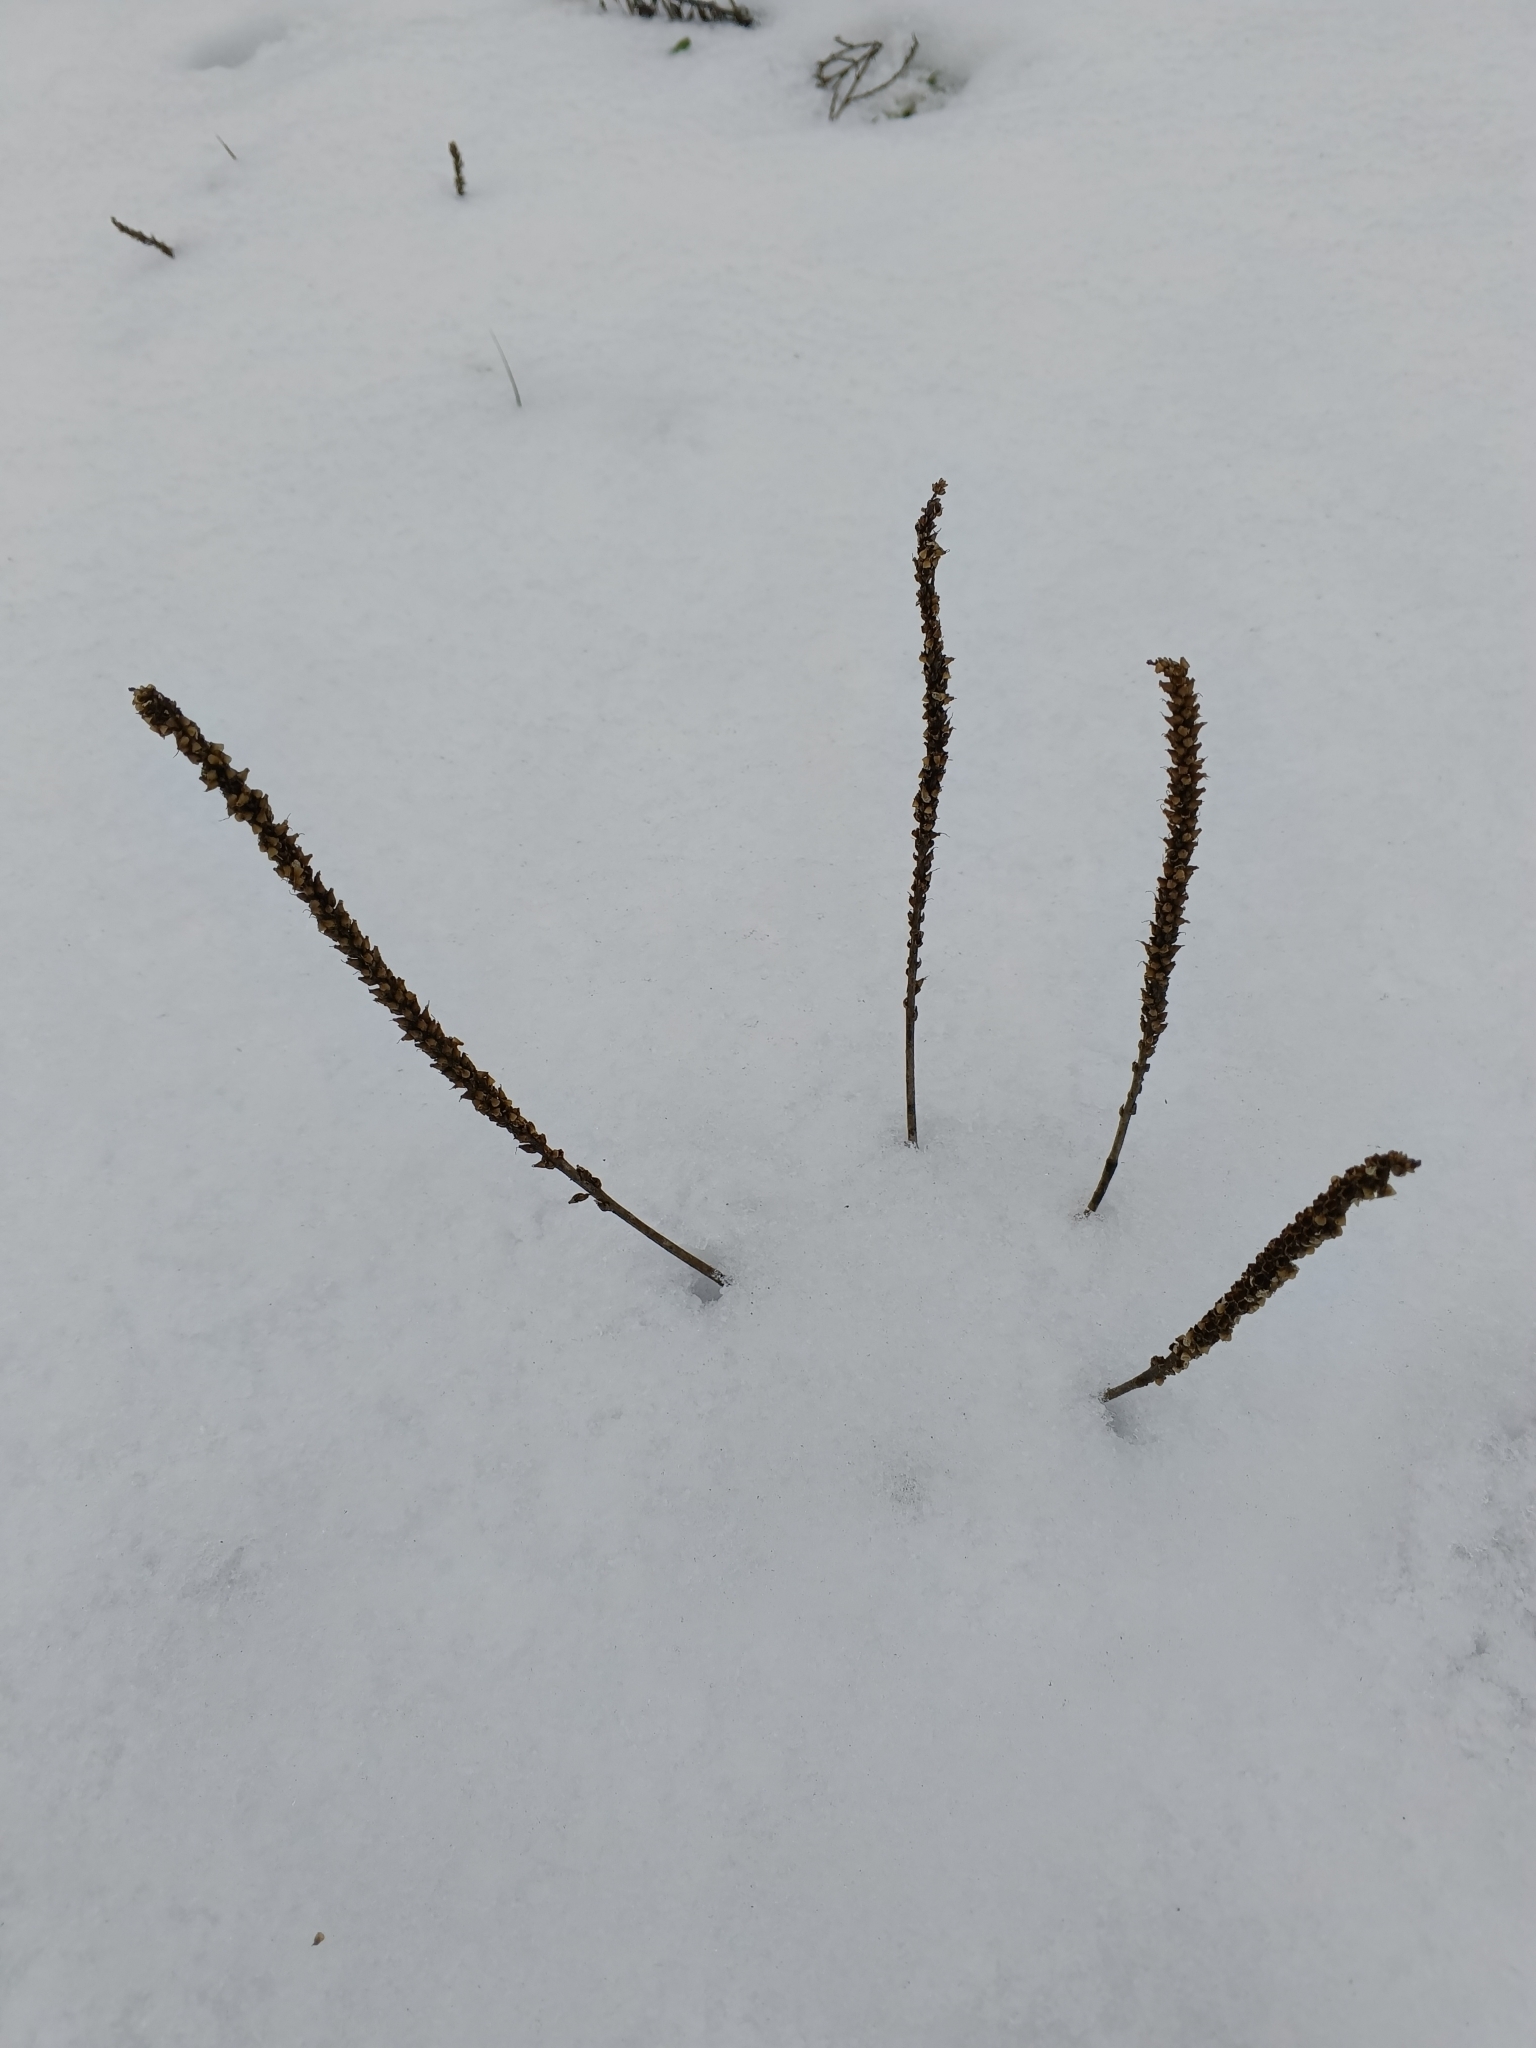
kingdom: Plantae
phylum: Tracheophyta
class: Magnoliopsida
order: Lamiales
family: Plantaginaceae
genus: Plantago
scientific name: Plantago major
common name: Common plantain
